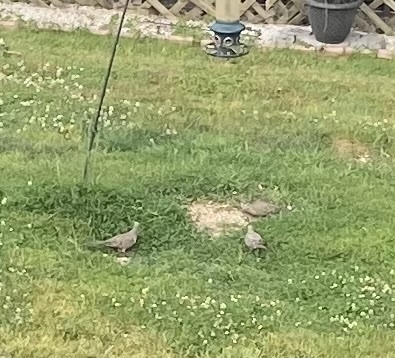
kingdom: Animalia
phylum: Chordata
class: Aves
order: Columbiformes
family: Columbidae
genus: Zenaida
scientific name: Zenaida macroura
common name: Mourning dove
